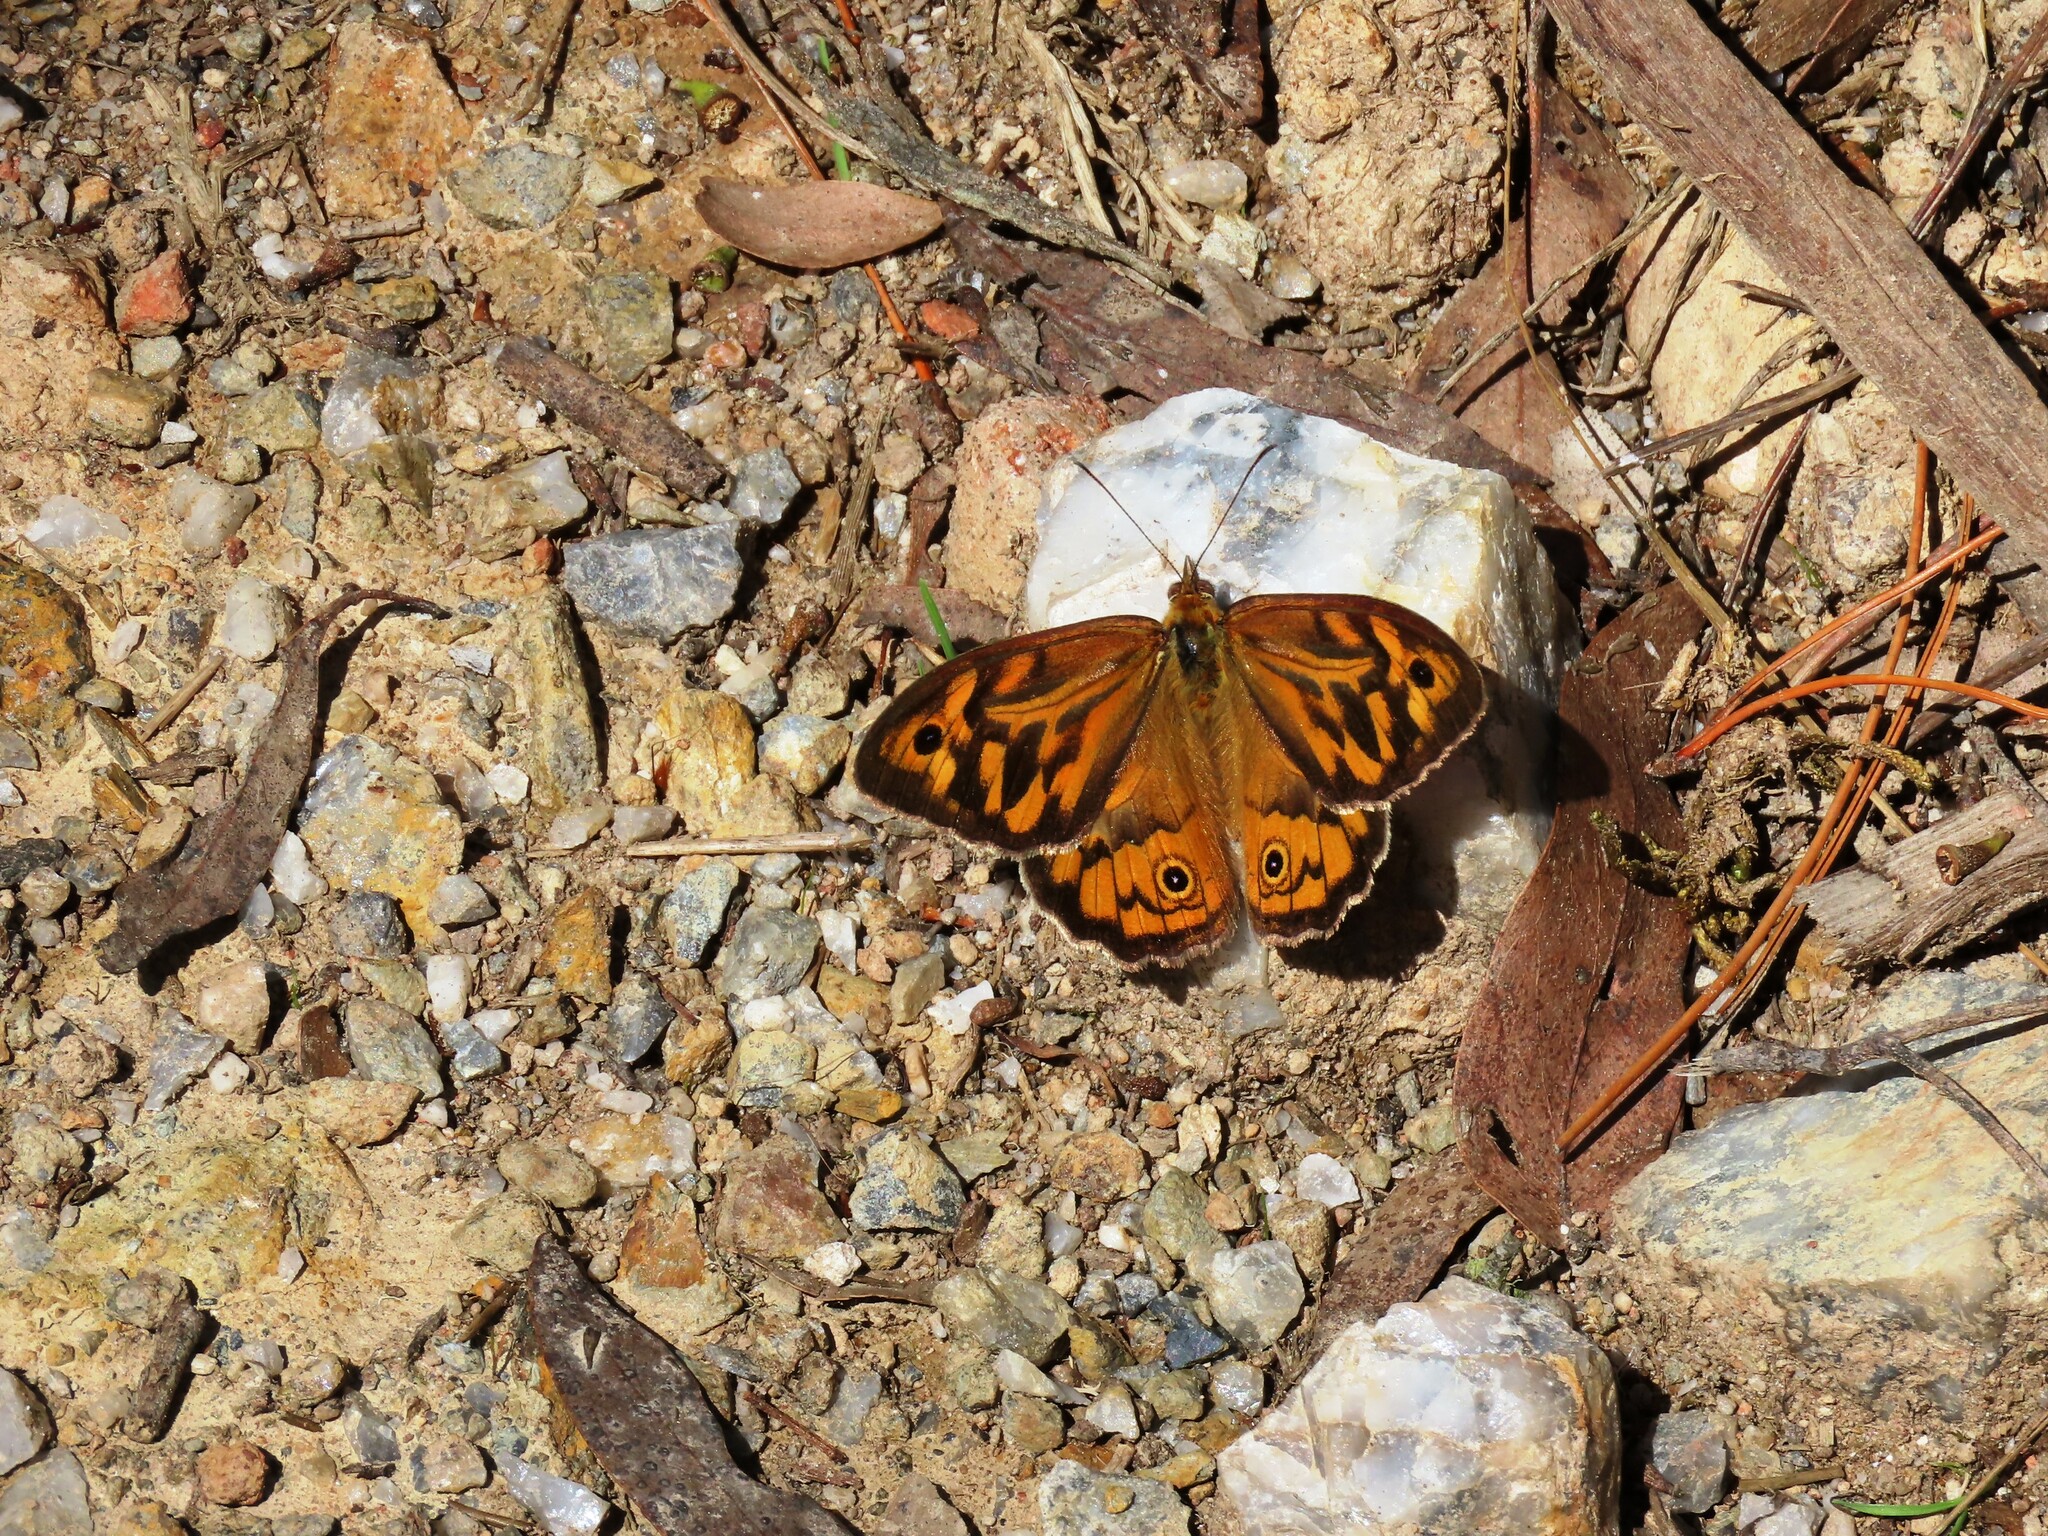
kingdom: Animalia
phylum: Arthropoda
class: Insecta
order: Lepidoptera
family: Nymphalidae
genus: Heteronympha
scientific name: Heteronympha merope
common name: Common brown
